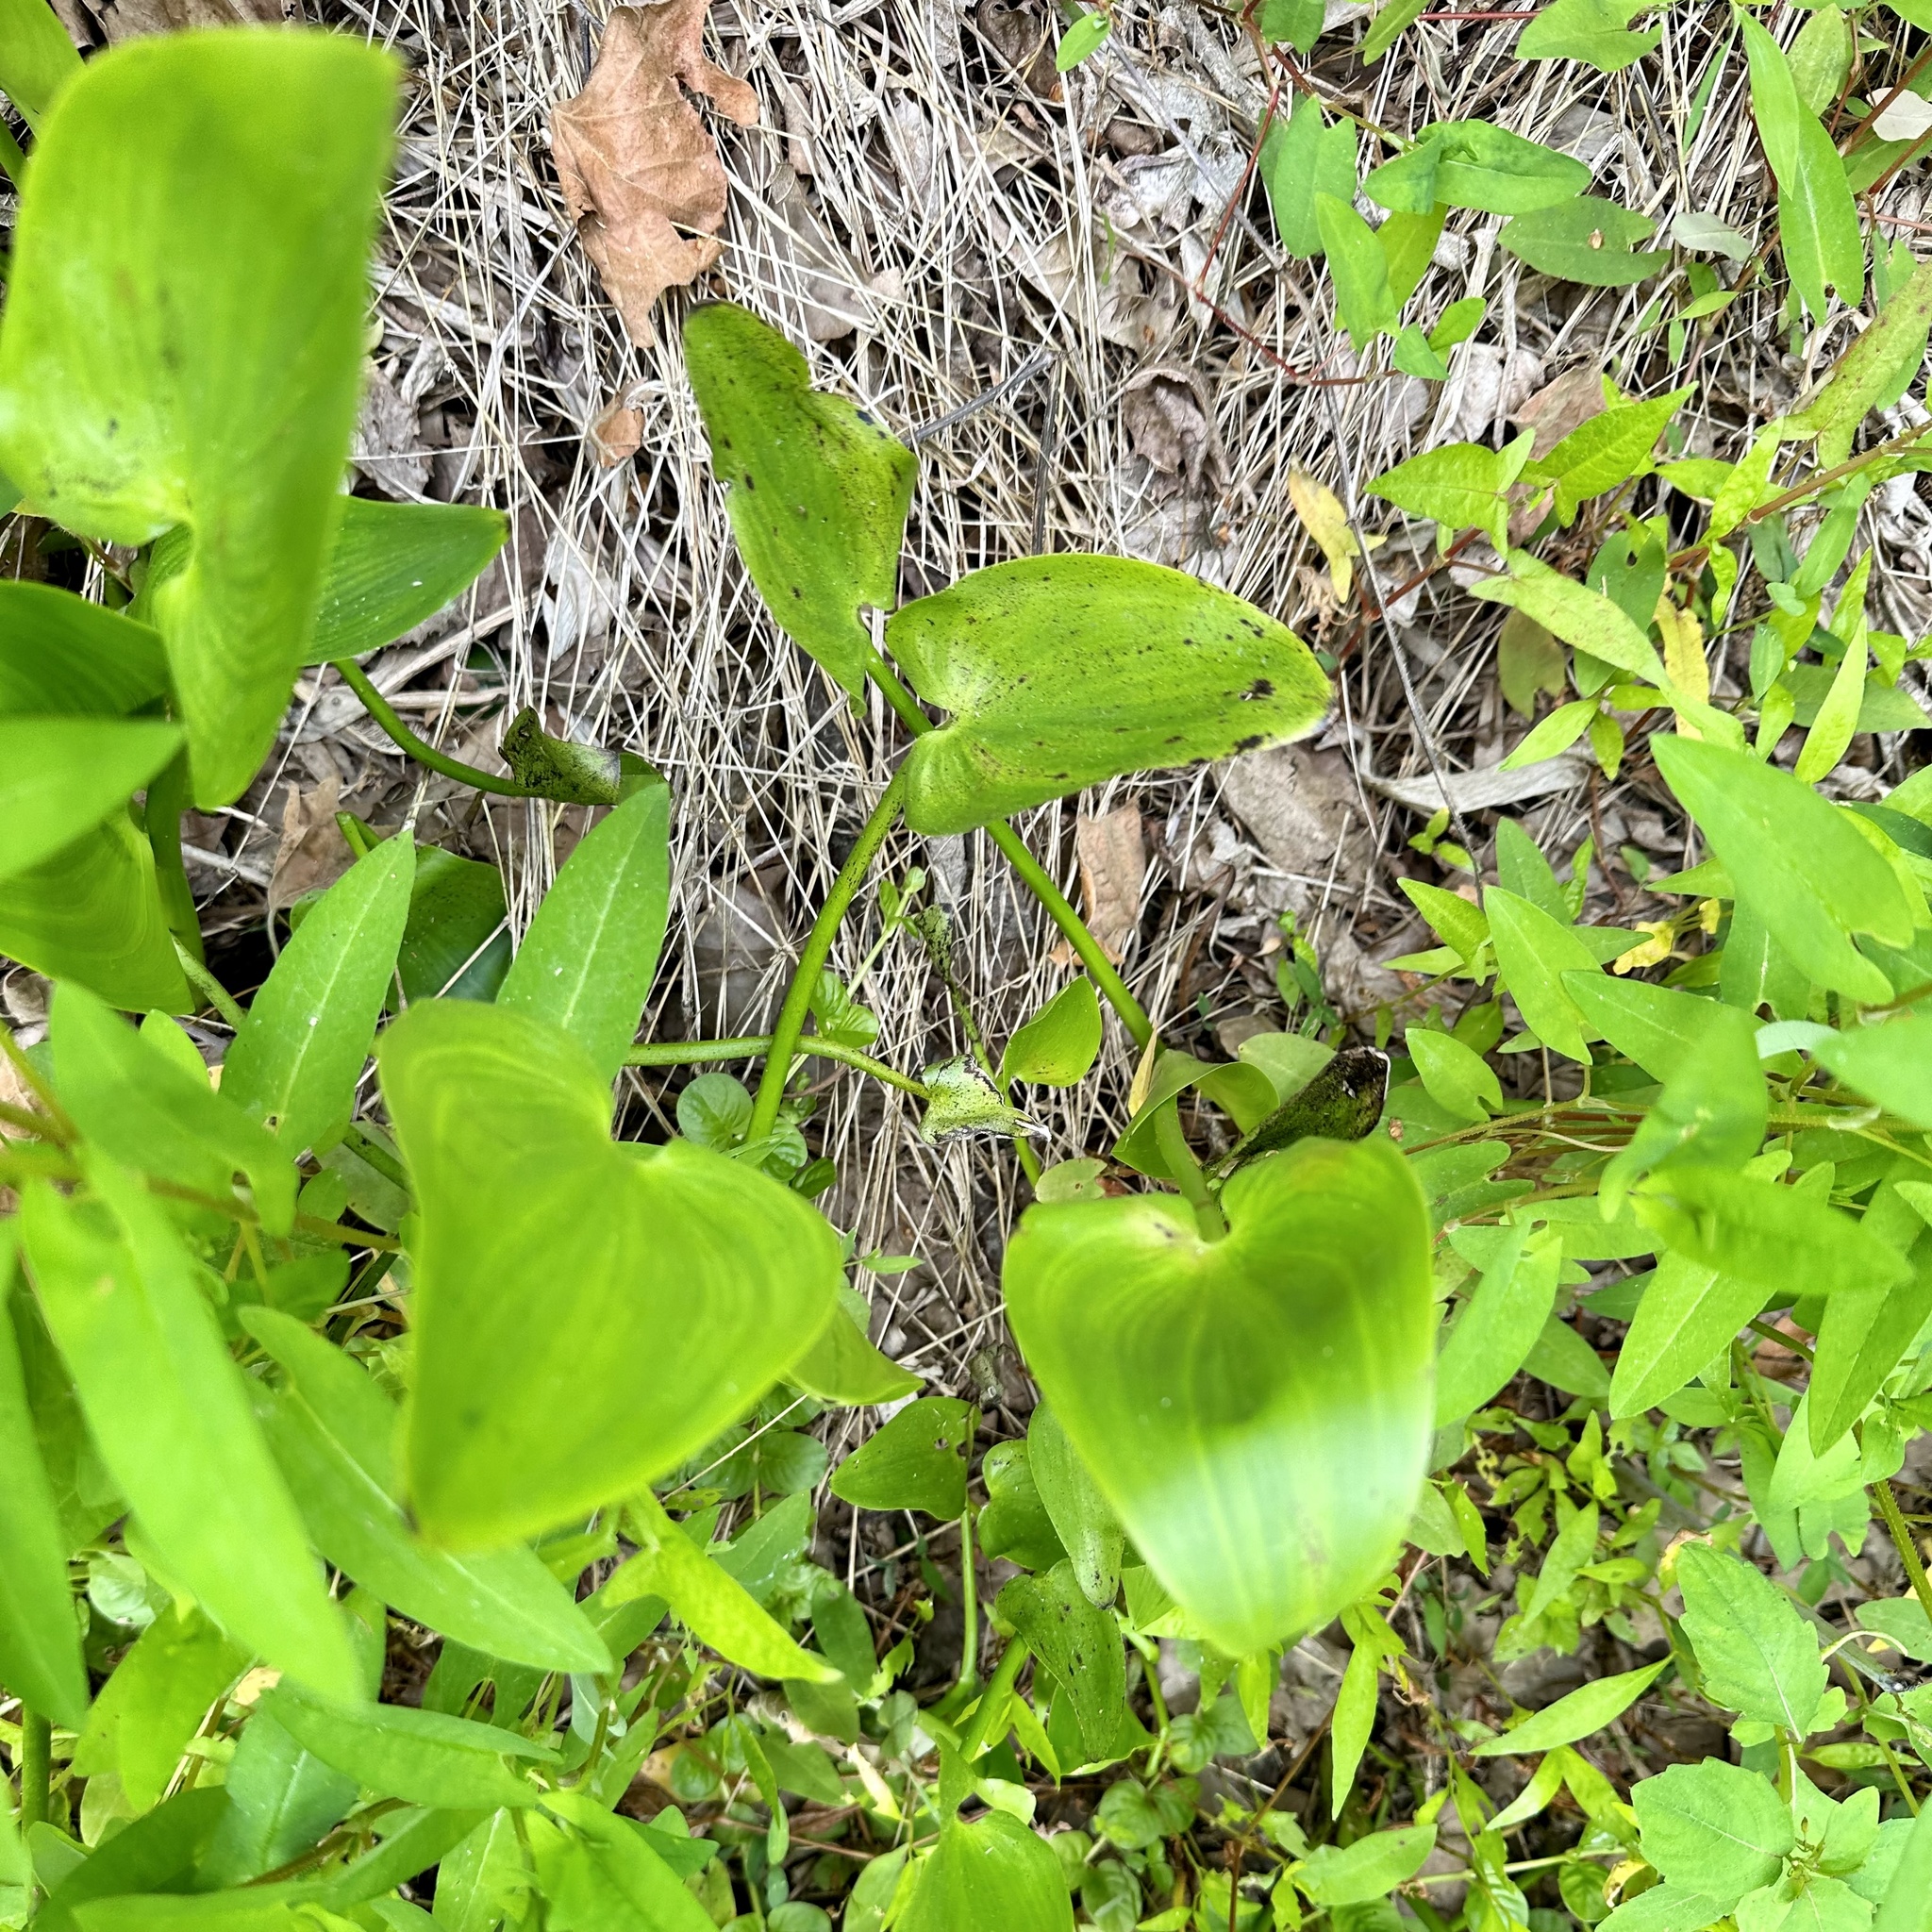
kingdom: Plantae
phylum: Tracheophyta
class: Liliopsida
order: Commelinales
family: Pontederiaceae
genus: Pontederia
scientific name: Pontederia cordata
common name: Pickerelweed
